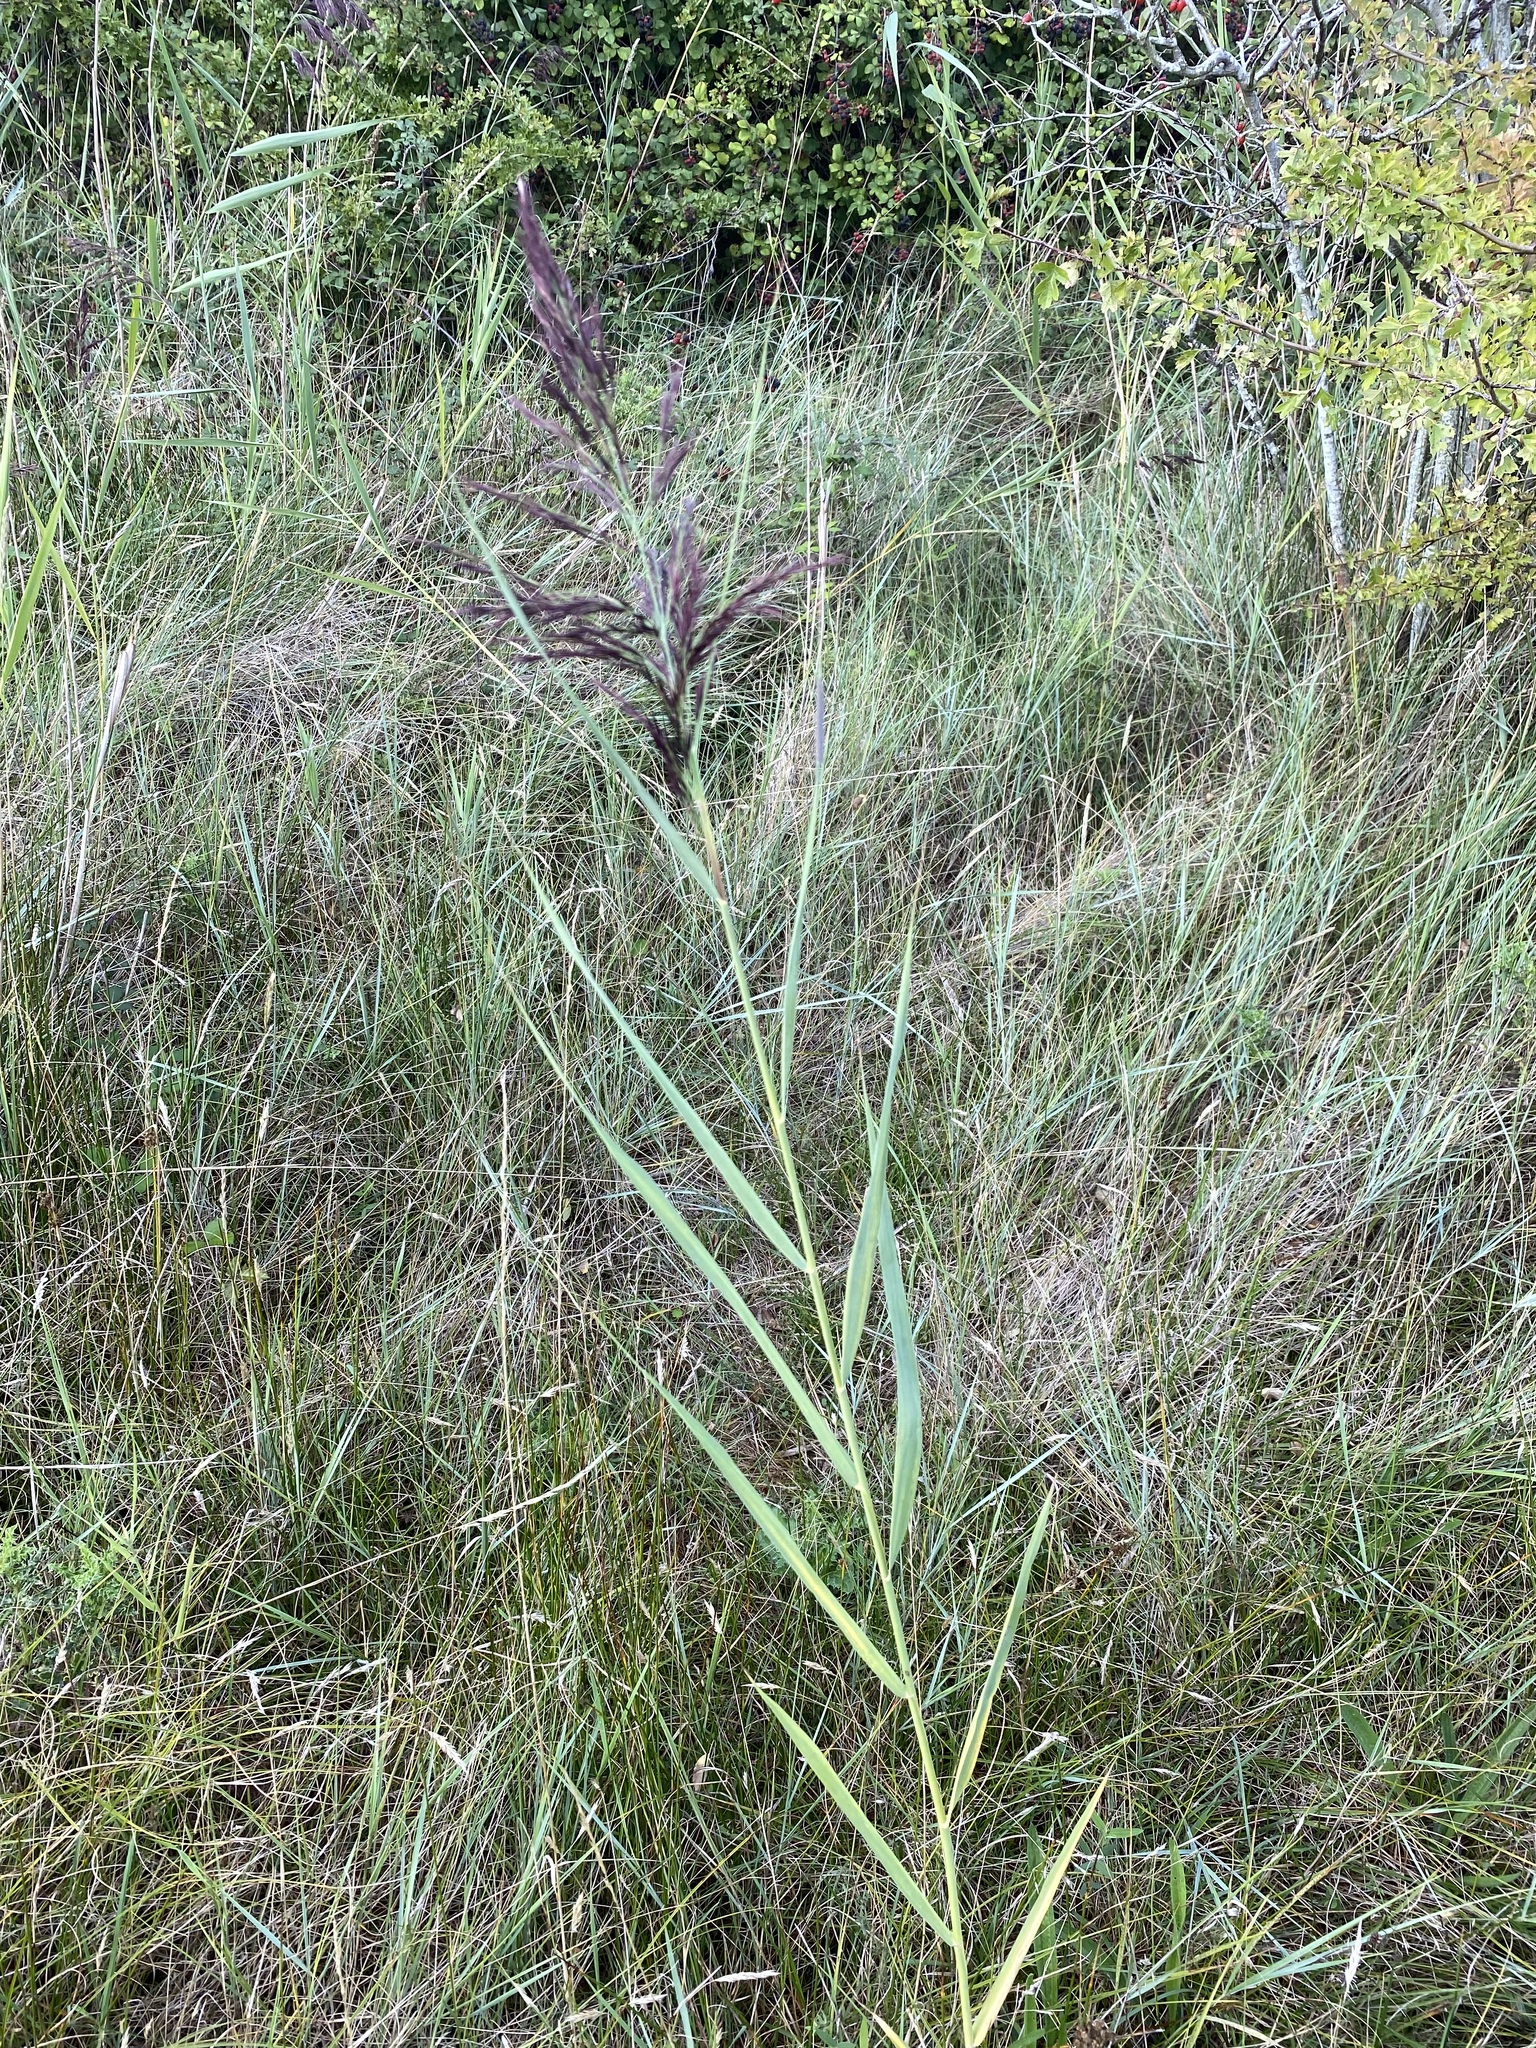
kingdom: Plantae
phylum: Tracheophyta
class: Liliopsida
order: Poales
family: Poaceae
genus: Phragmites
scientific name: Phragmites australis
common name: Common reed
